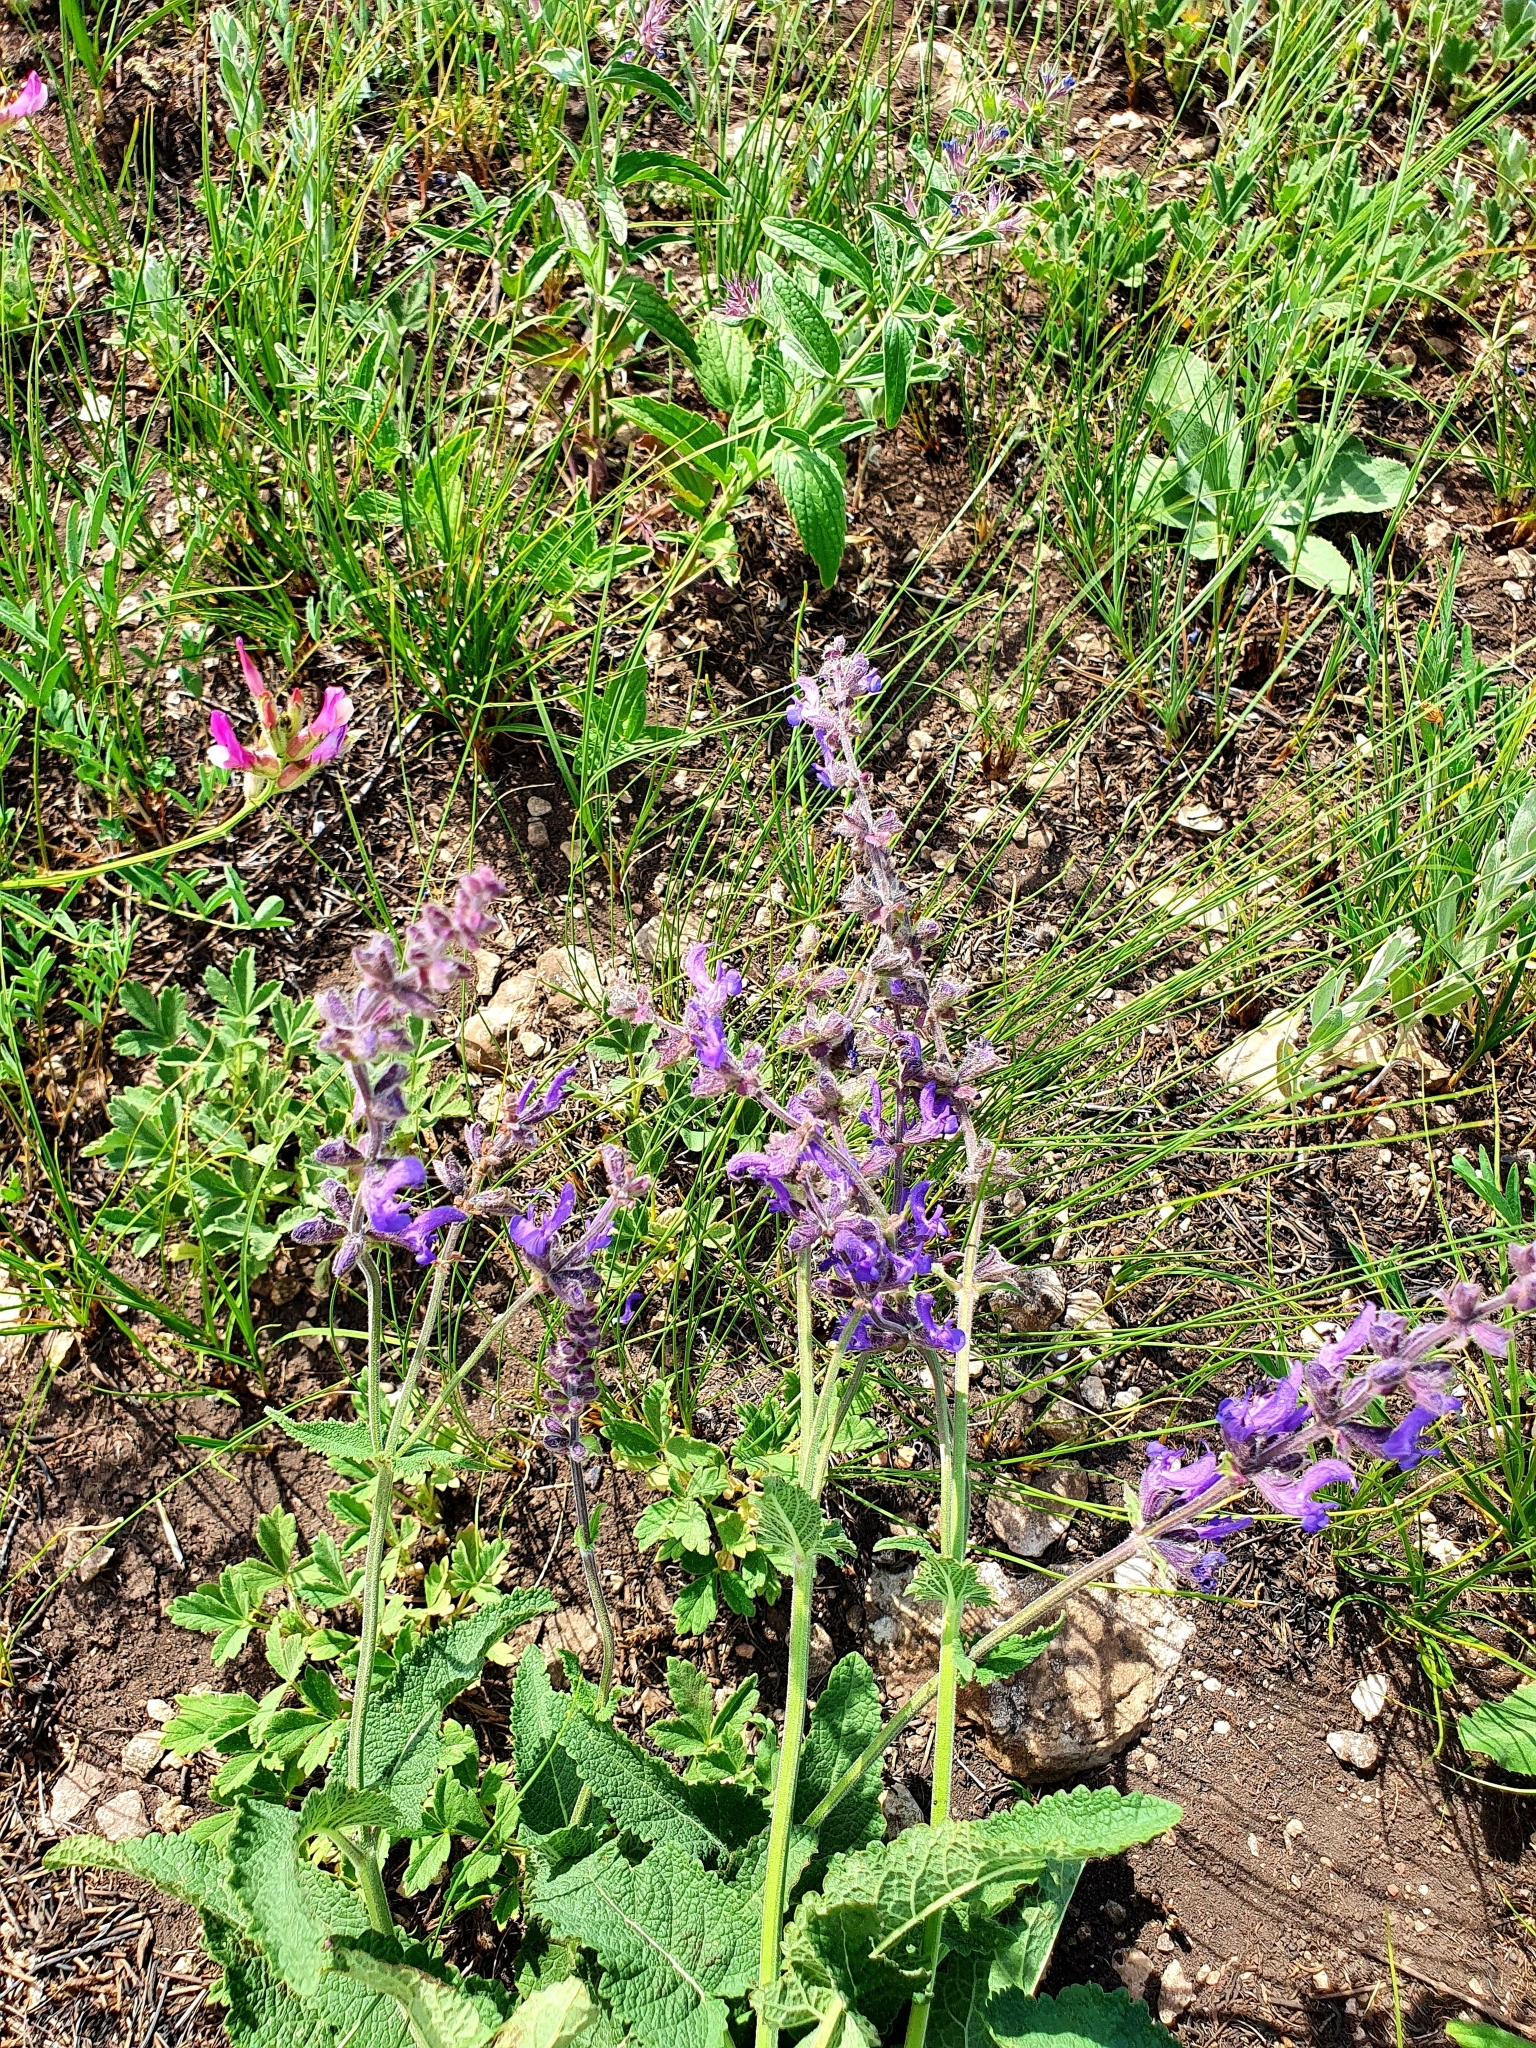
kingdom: Plantae
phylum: Tracheophyta
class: Magnoliopsida
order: Lamiales
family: Lamiaceae
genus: Salvia
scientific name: Salvia dumetorum
